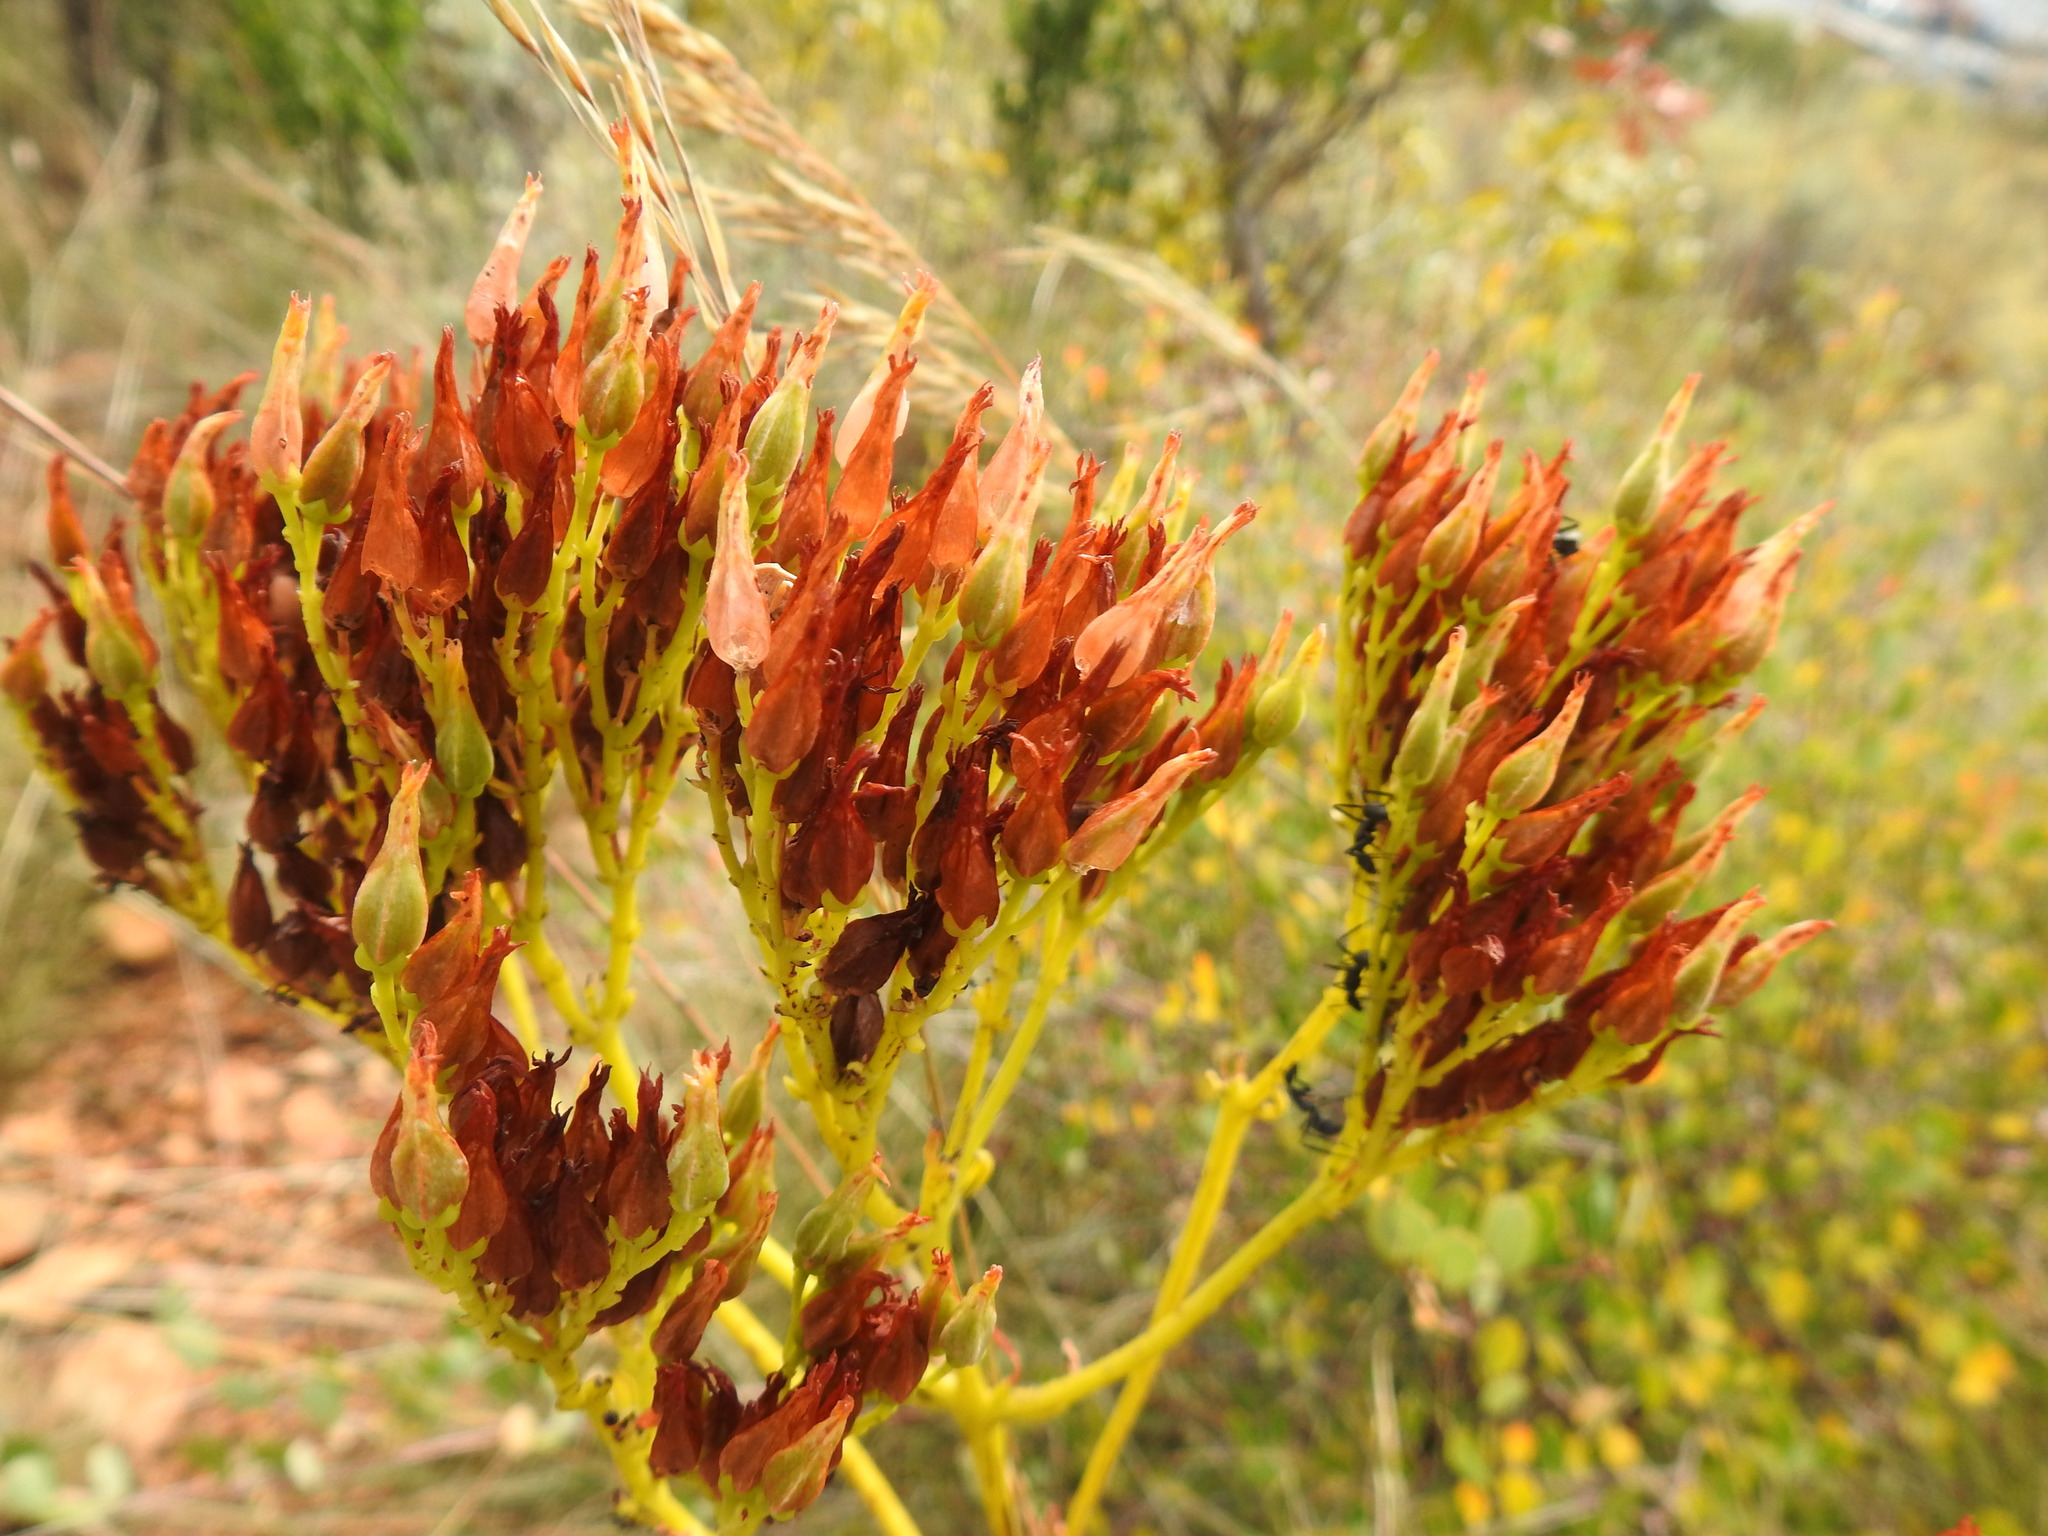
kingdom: Plantae
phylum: Tracheophyta
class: Magnoliopsida
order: Saxifragales
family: Crassulaceae
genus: Kalanchoe
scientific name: Kalanchoe paniculata
